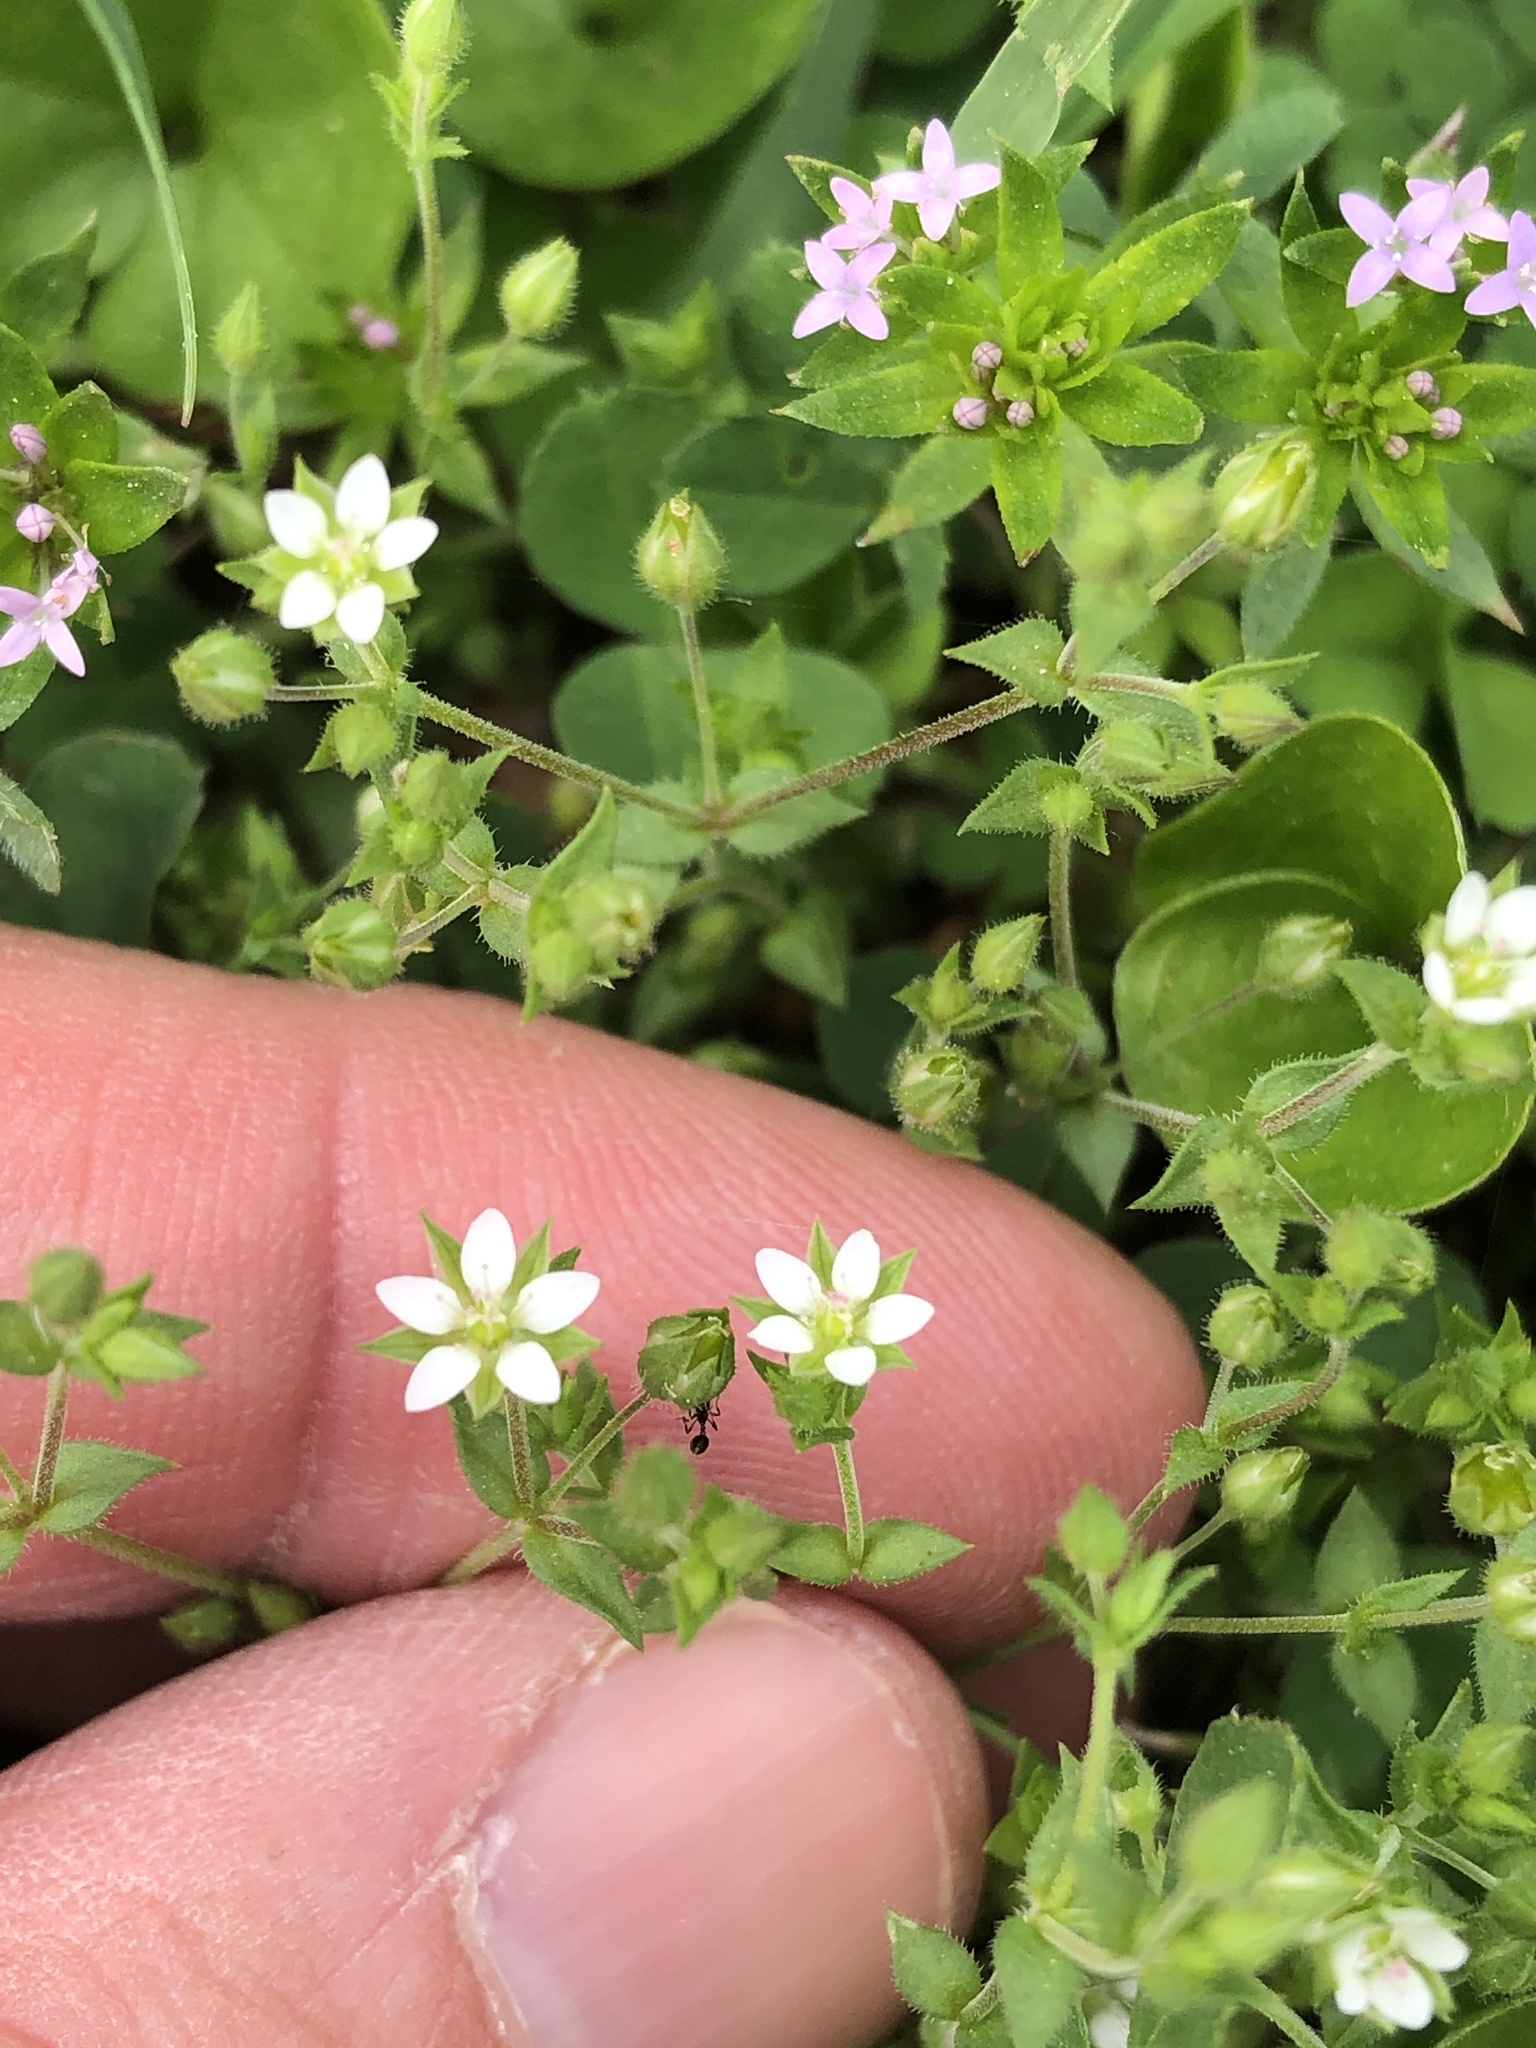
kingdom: Plantae
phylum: Tracheophyta
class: Magnoliopsida
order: Caryophyllales
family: Caryophyllaceae
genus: Arenaria
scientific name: Arenaria serpyllifolia
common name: Thyme-leaved sandwort
